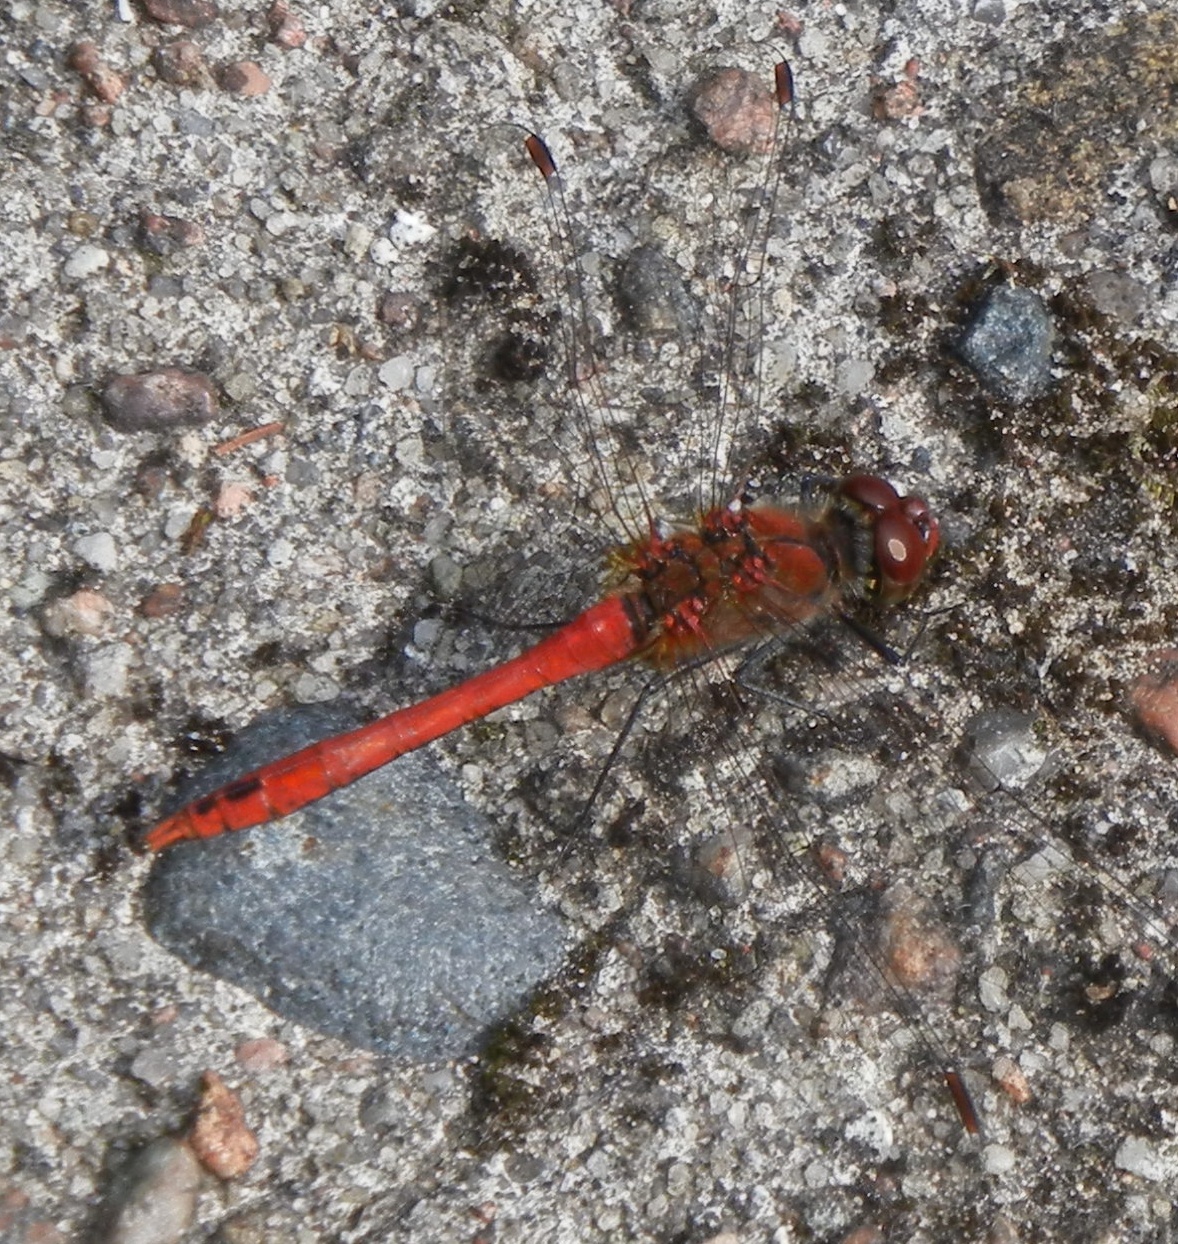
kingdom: Animalia
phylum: Arthropoda
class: Insecta
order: Odonata
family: Libellulidae
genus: Sympetrum
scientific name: Sympetrum sanguineum
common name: Ruddy darter
